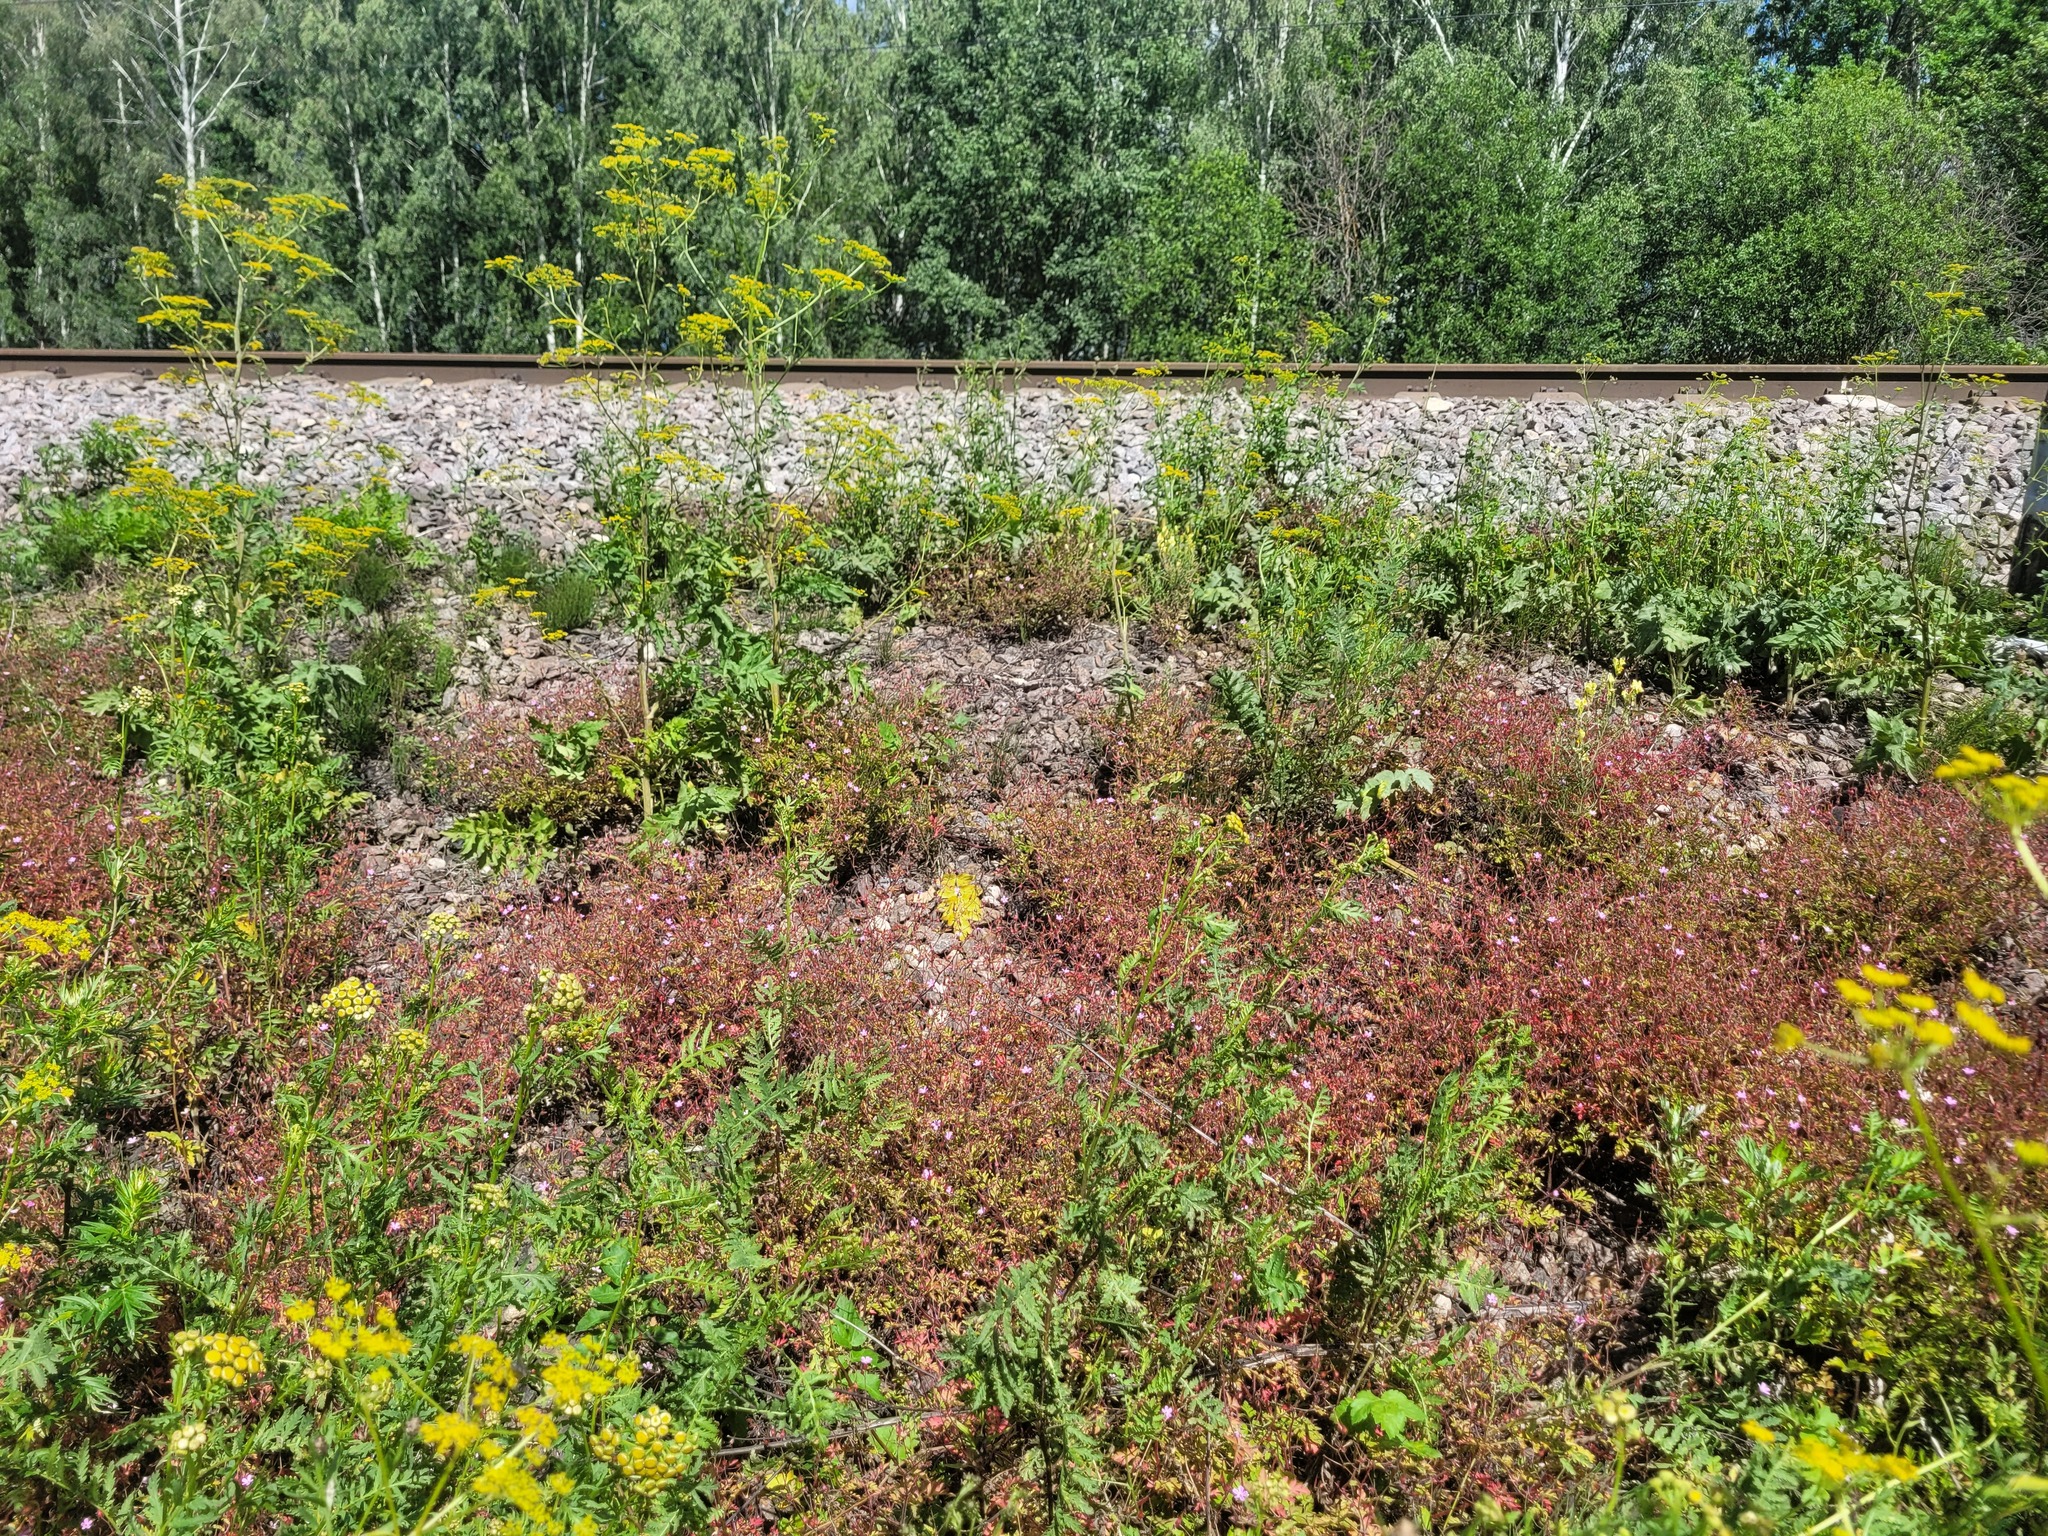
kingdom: Plantae
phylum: Tracheophyta
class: Magnoliopsida
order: Geraniales
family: Geraniaceae
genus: Geranium
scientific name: Geranium robertianum
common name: Herb-robert
